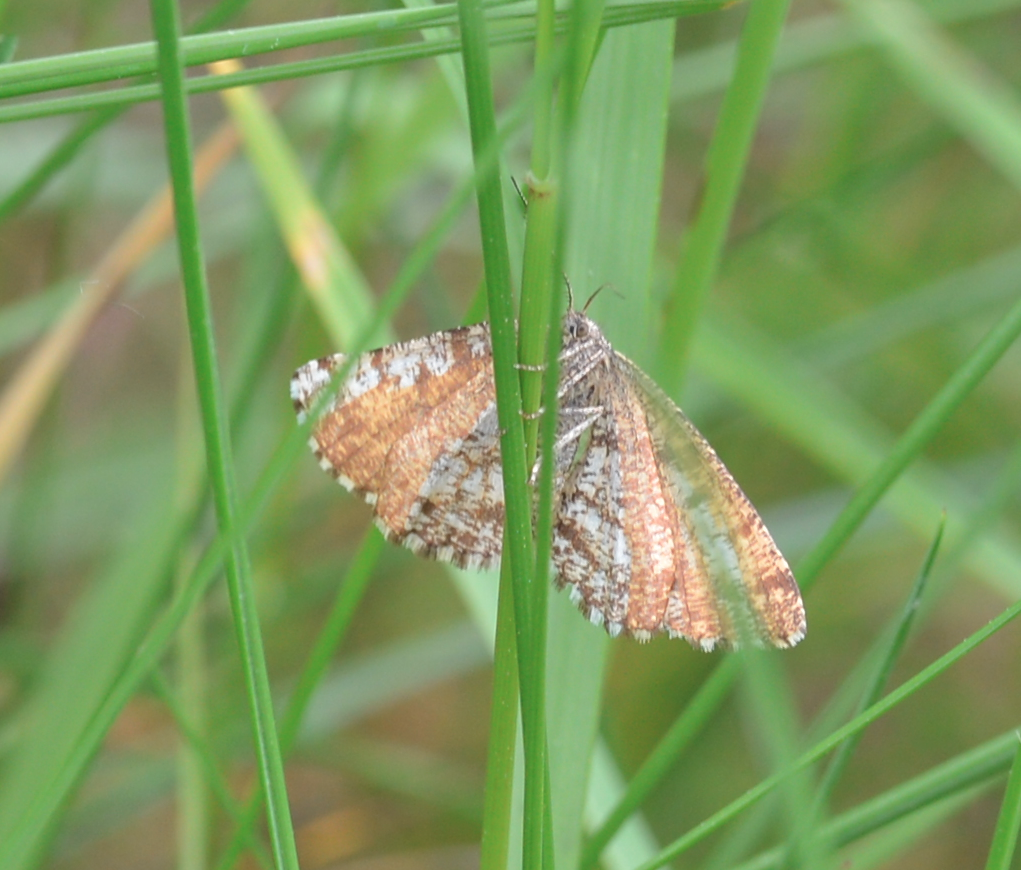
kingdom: Animalia
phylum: Arthropoda
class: Insecta
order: Lepidoptera
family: Geometridae
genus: Ematurga
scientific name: Ematurga atomaria
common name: Common heath
